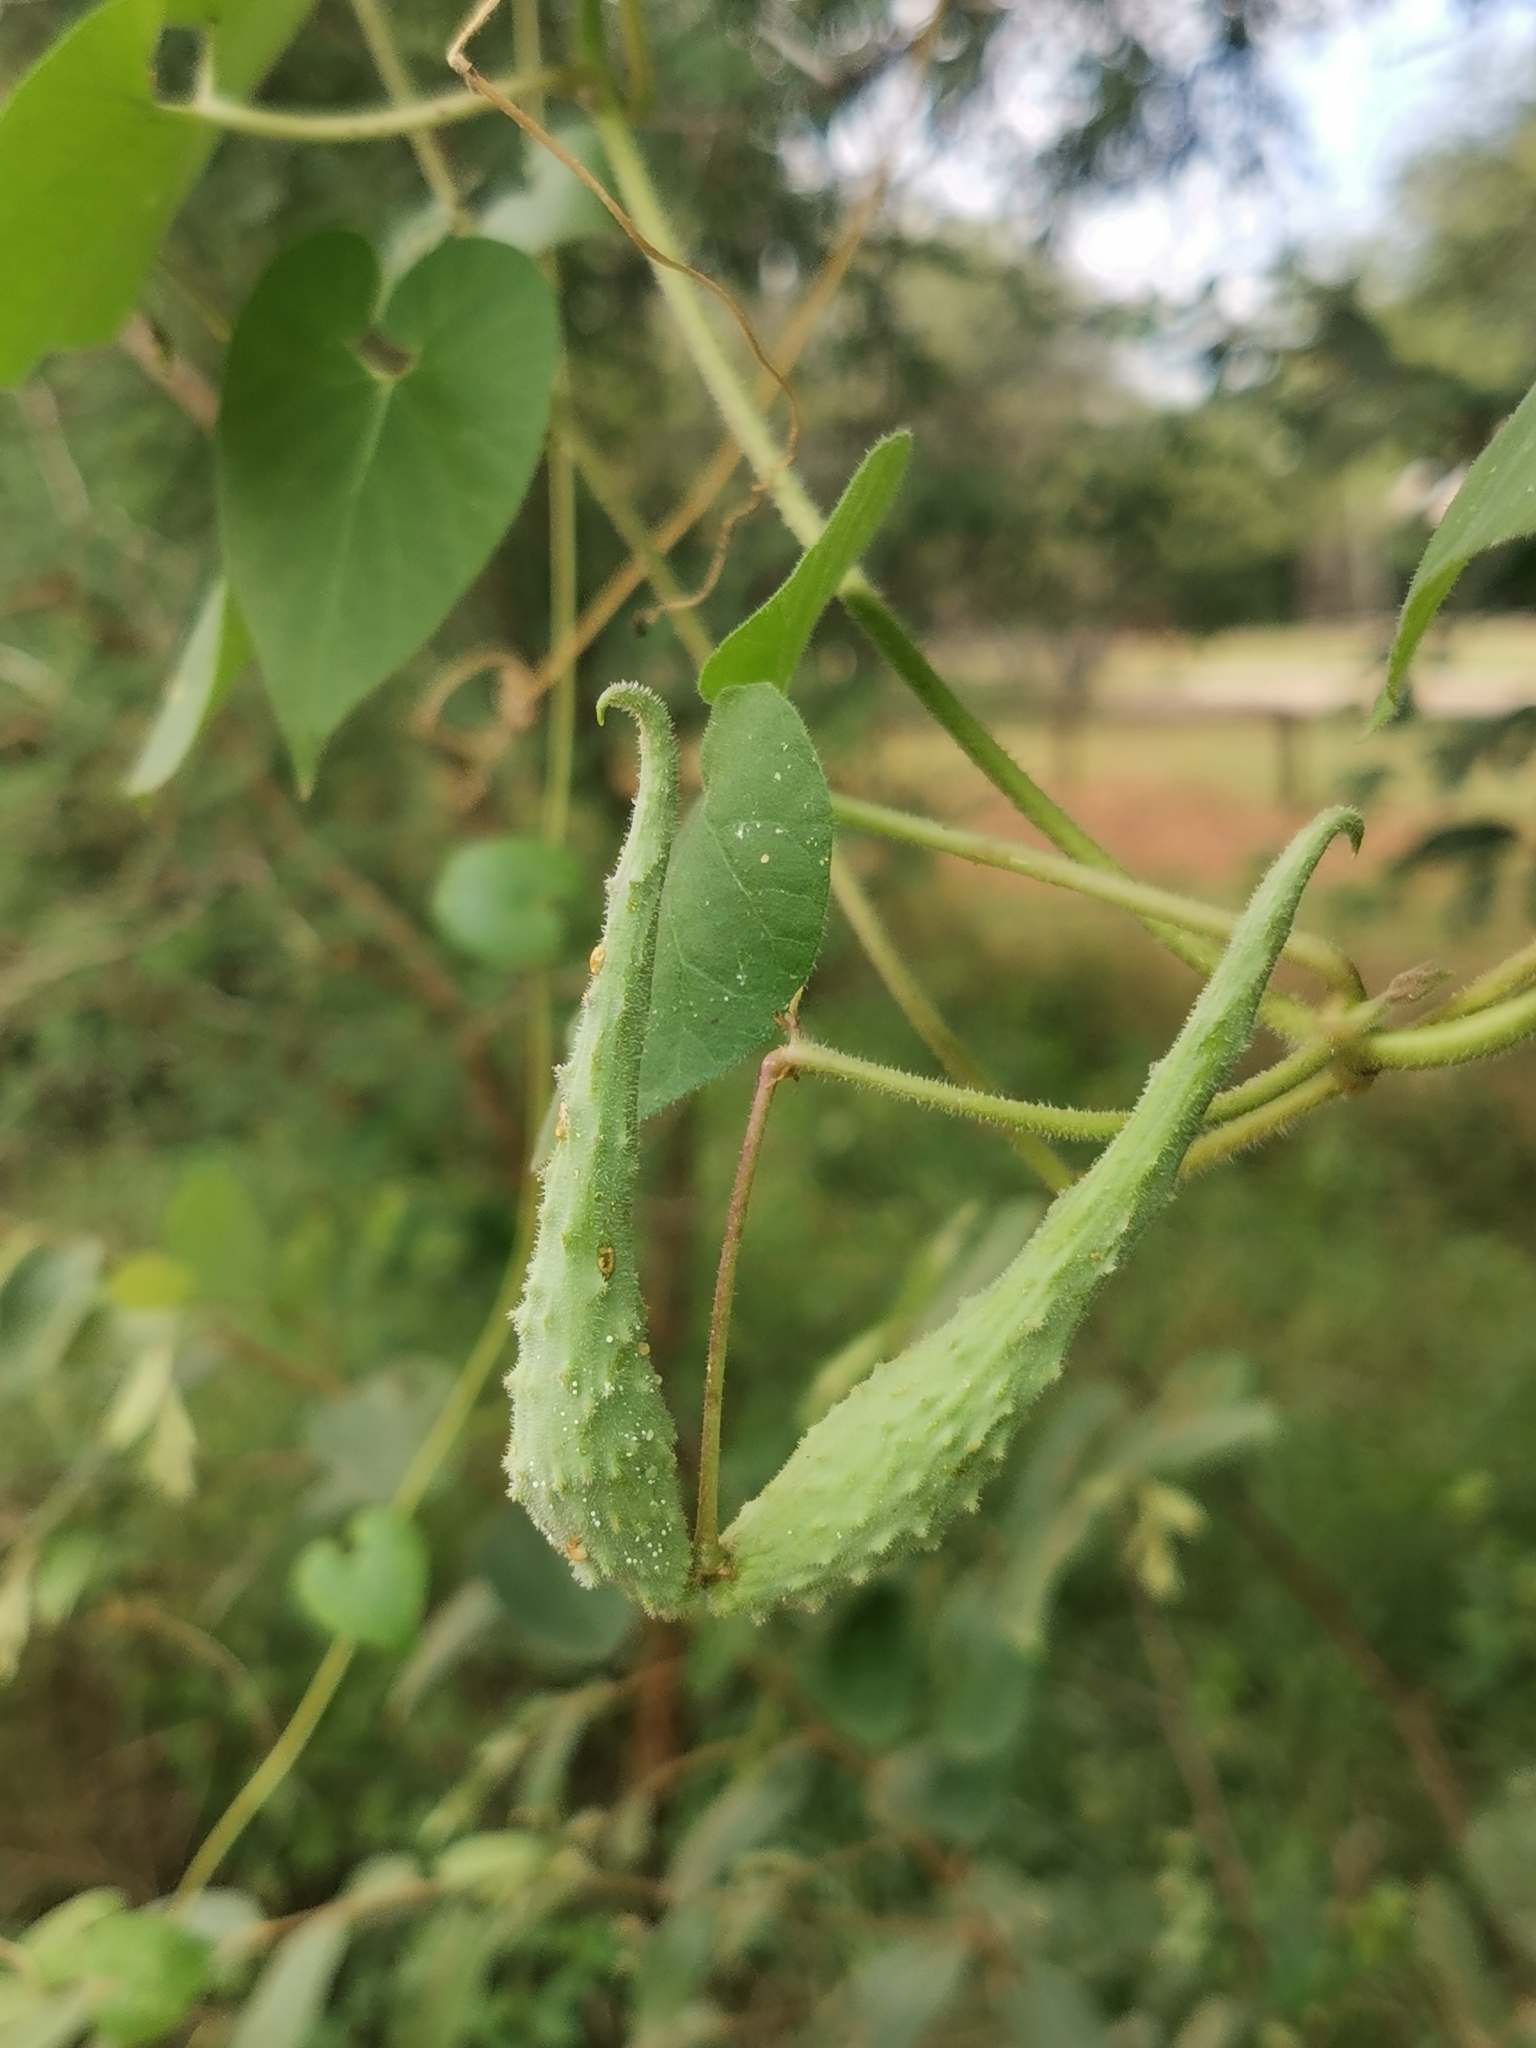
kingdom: Plantae
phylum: Tracheophyta
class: Magnoliopsida
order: Gentianales
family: Apocynaceae
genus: Pergularia
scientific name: Pergularia daemia
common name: Trellis-vine
